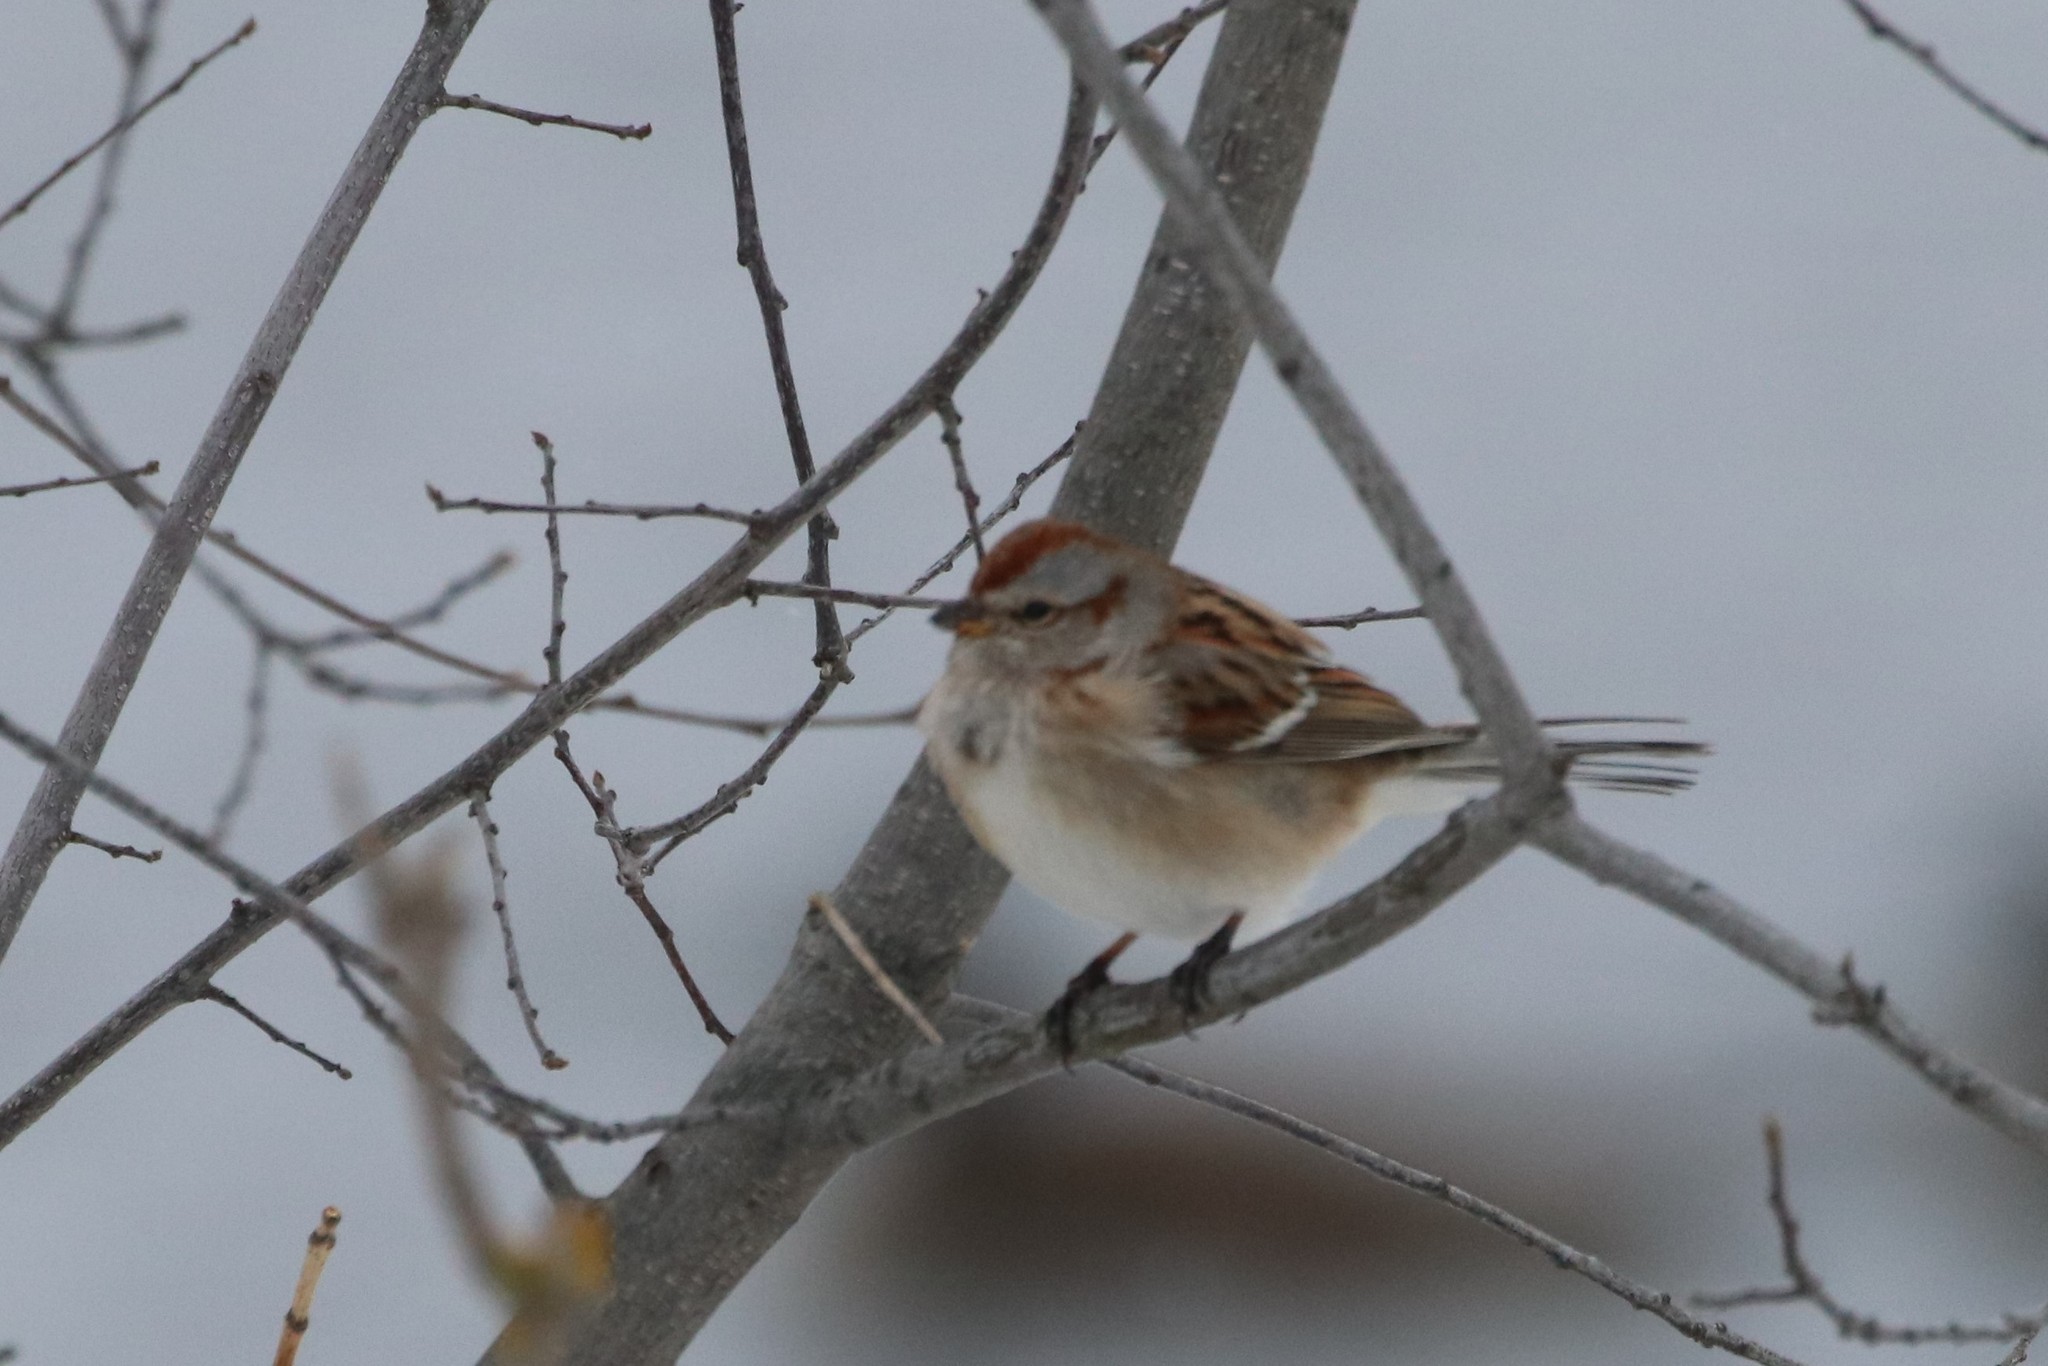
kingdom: Animalia
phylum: Chordata
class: Aves
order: Passeriformes
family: Passerellidae
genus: Spizelloides
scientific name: Spizelloides arborea
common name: American tree sparrow
